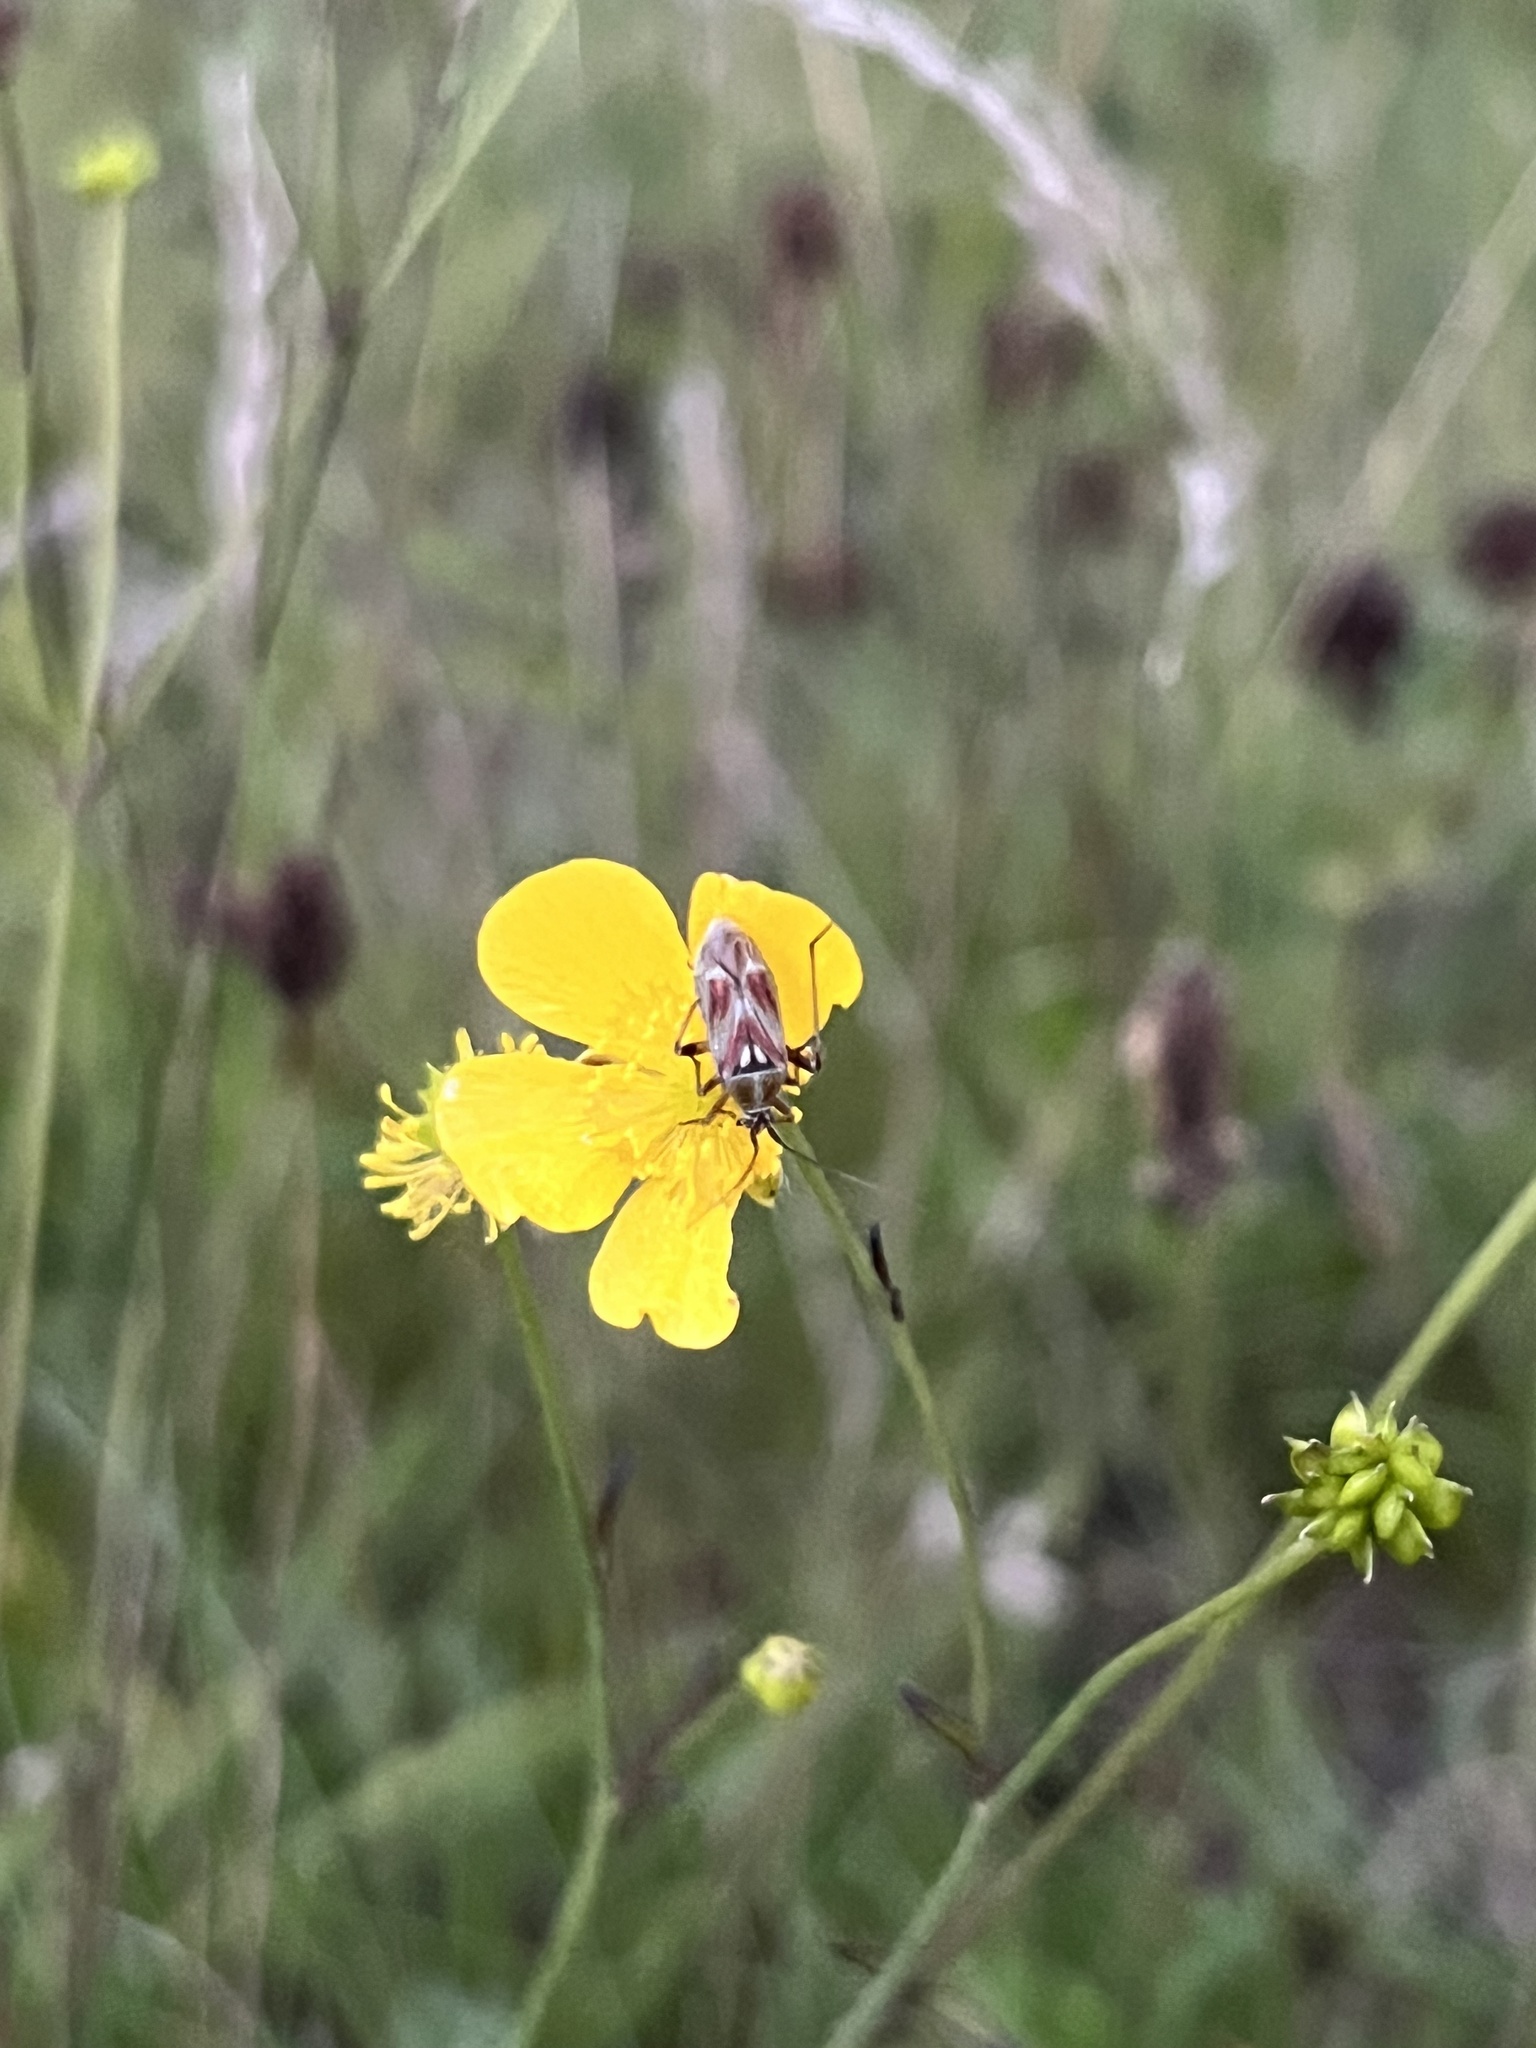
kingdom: Animalia
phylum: Arthropoda
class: Insecta
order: Hemiptera
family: Miridae
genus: Calocoris
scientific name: Calocoris roseomaculatus
